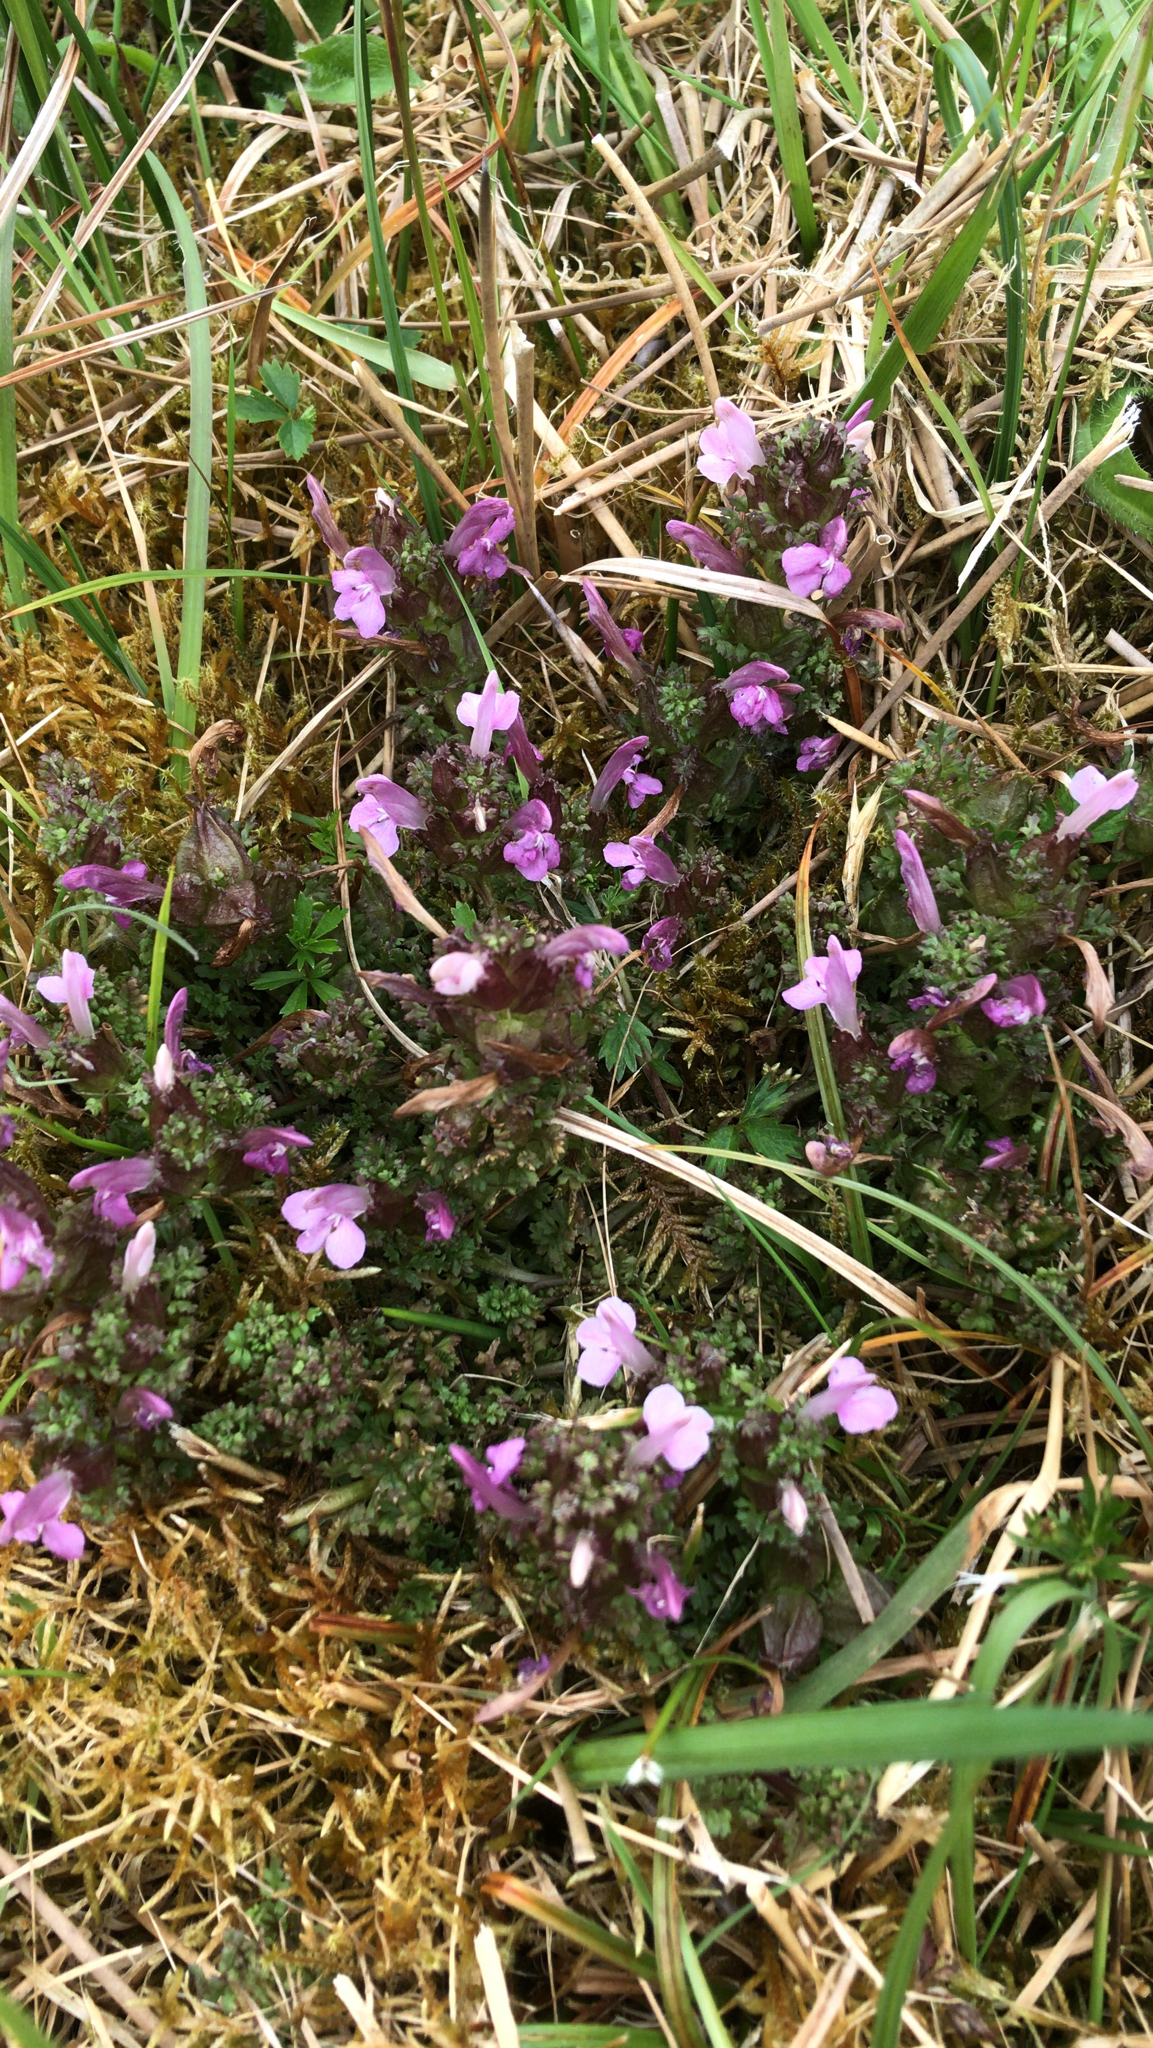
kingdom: Plantae
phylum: Tracheophyta
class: Magnoliopsida
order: Lamiales
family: Orobanchaceae
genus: Pedicularis
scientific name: Pedicularis sylvatica
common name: Lousewort
